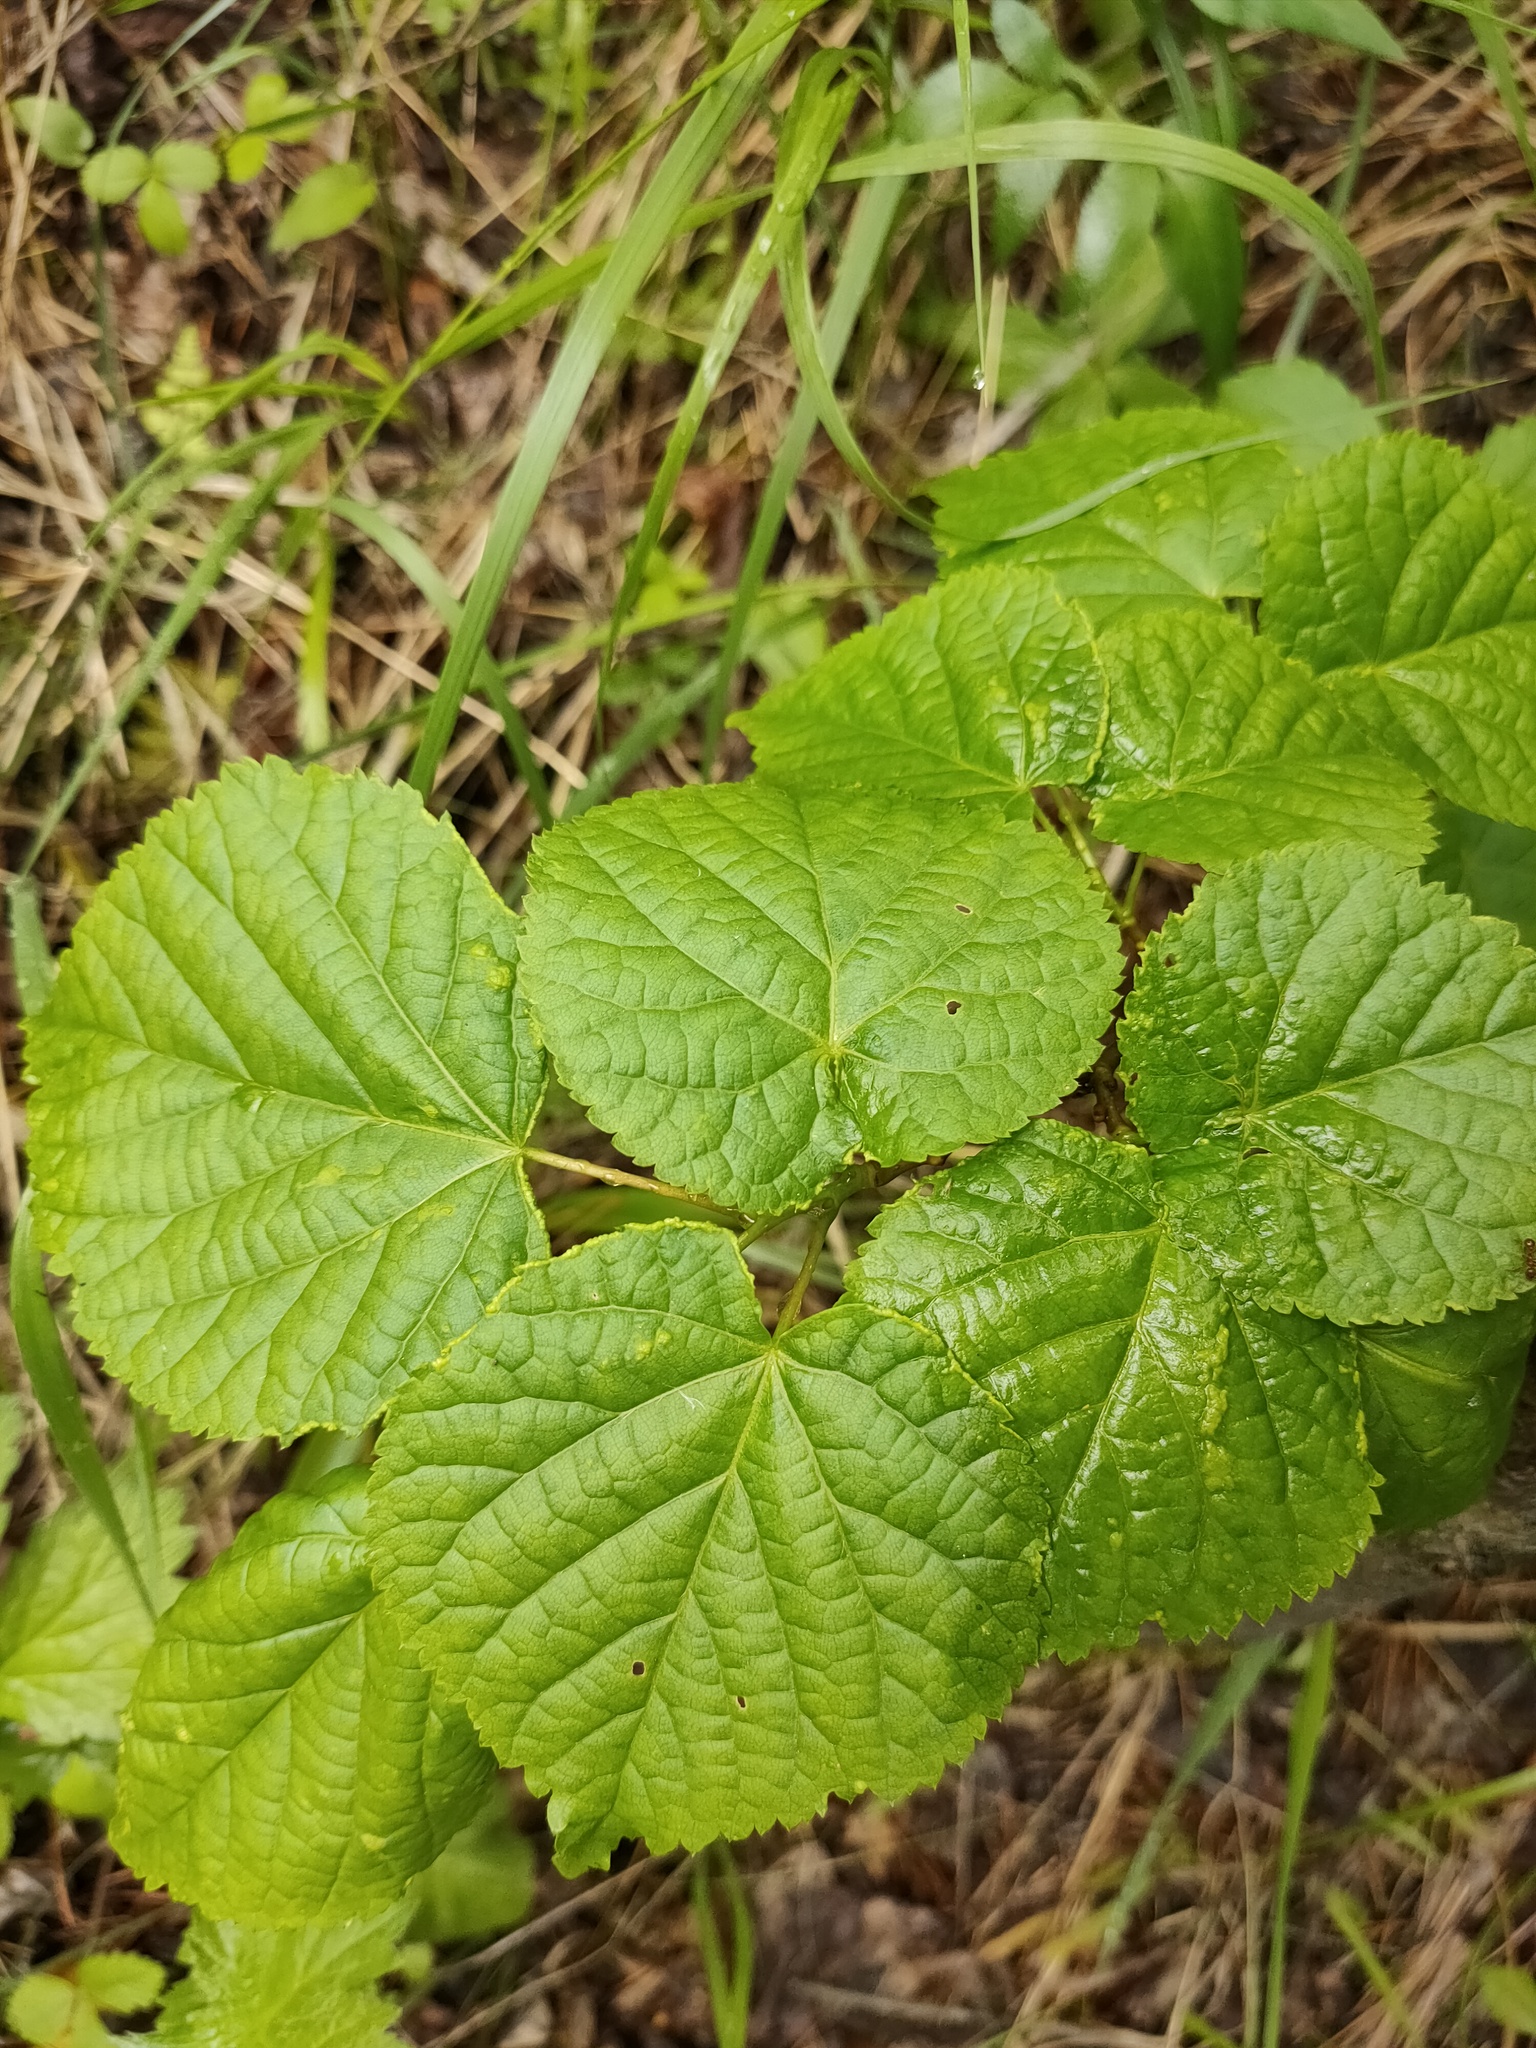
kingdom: Plantae
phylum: Tracheophyta
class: Magnoliopsida
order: Malvales
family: Malvaceae
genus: Tilia
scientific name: Tilia cordata
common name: Small-leaved lime
